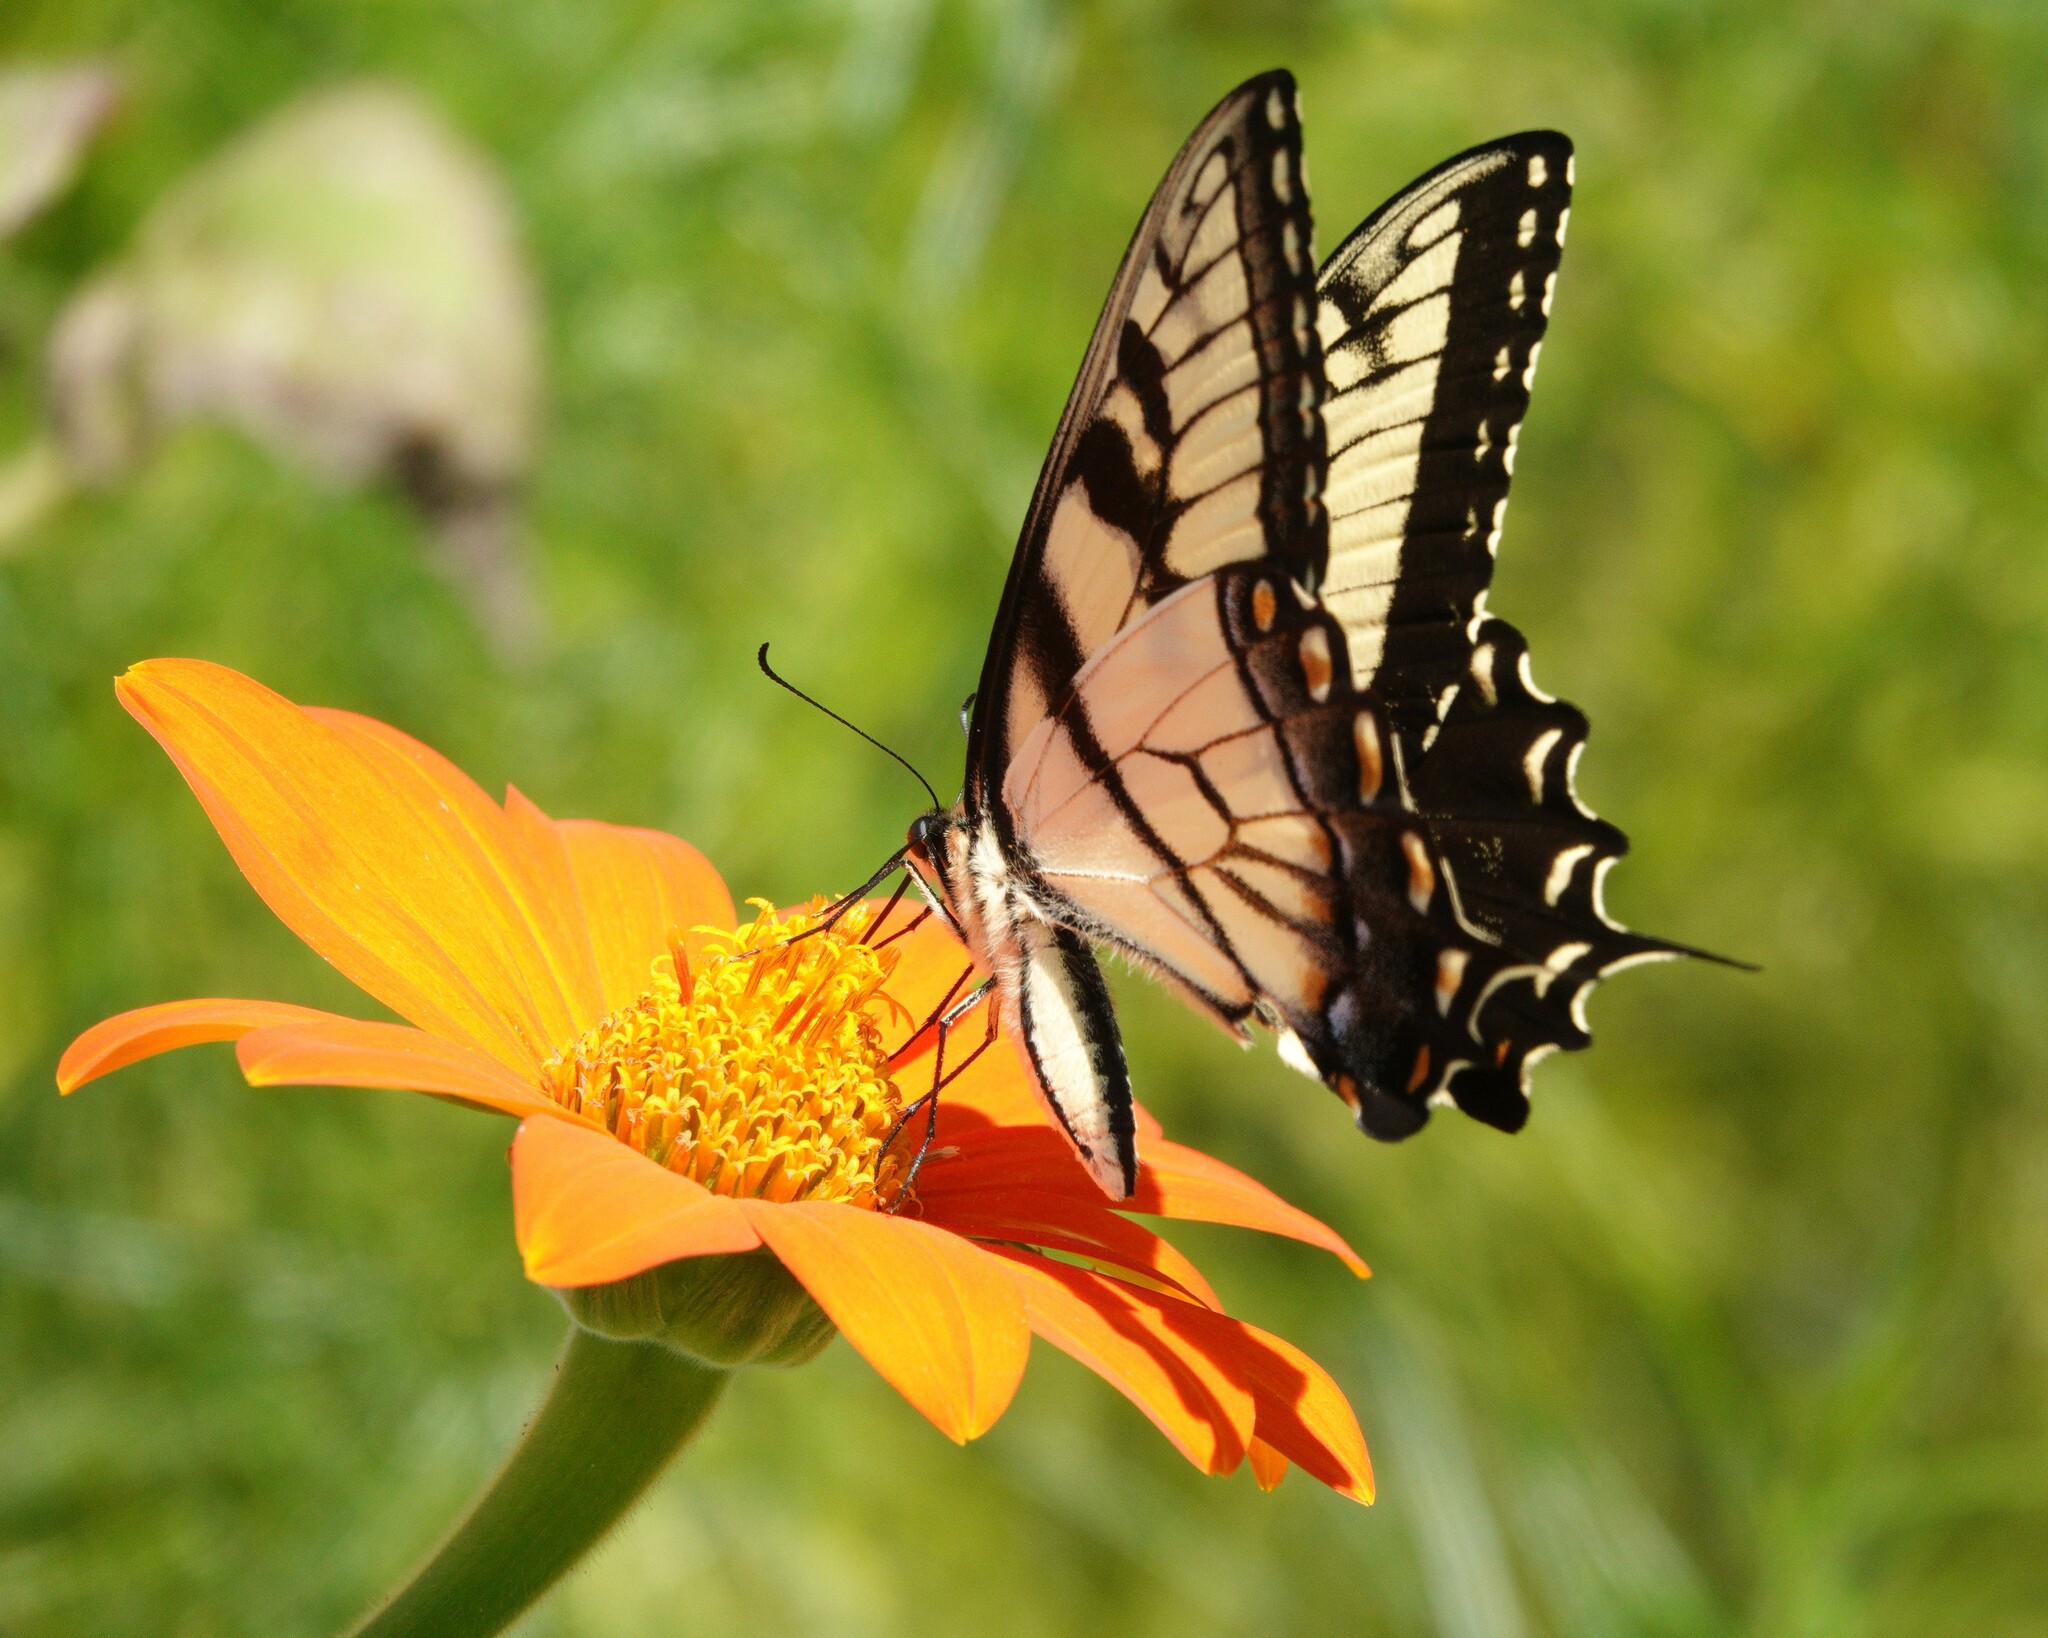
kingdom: Animalia
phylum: Arthropoda
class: Insecta
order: Lepidoptera
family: Papilionidae
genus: Papilio
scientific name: Papilio glaucus
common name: Tiger swallowtail
